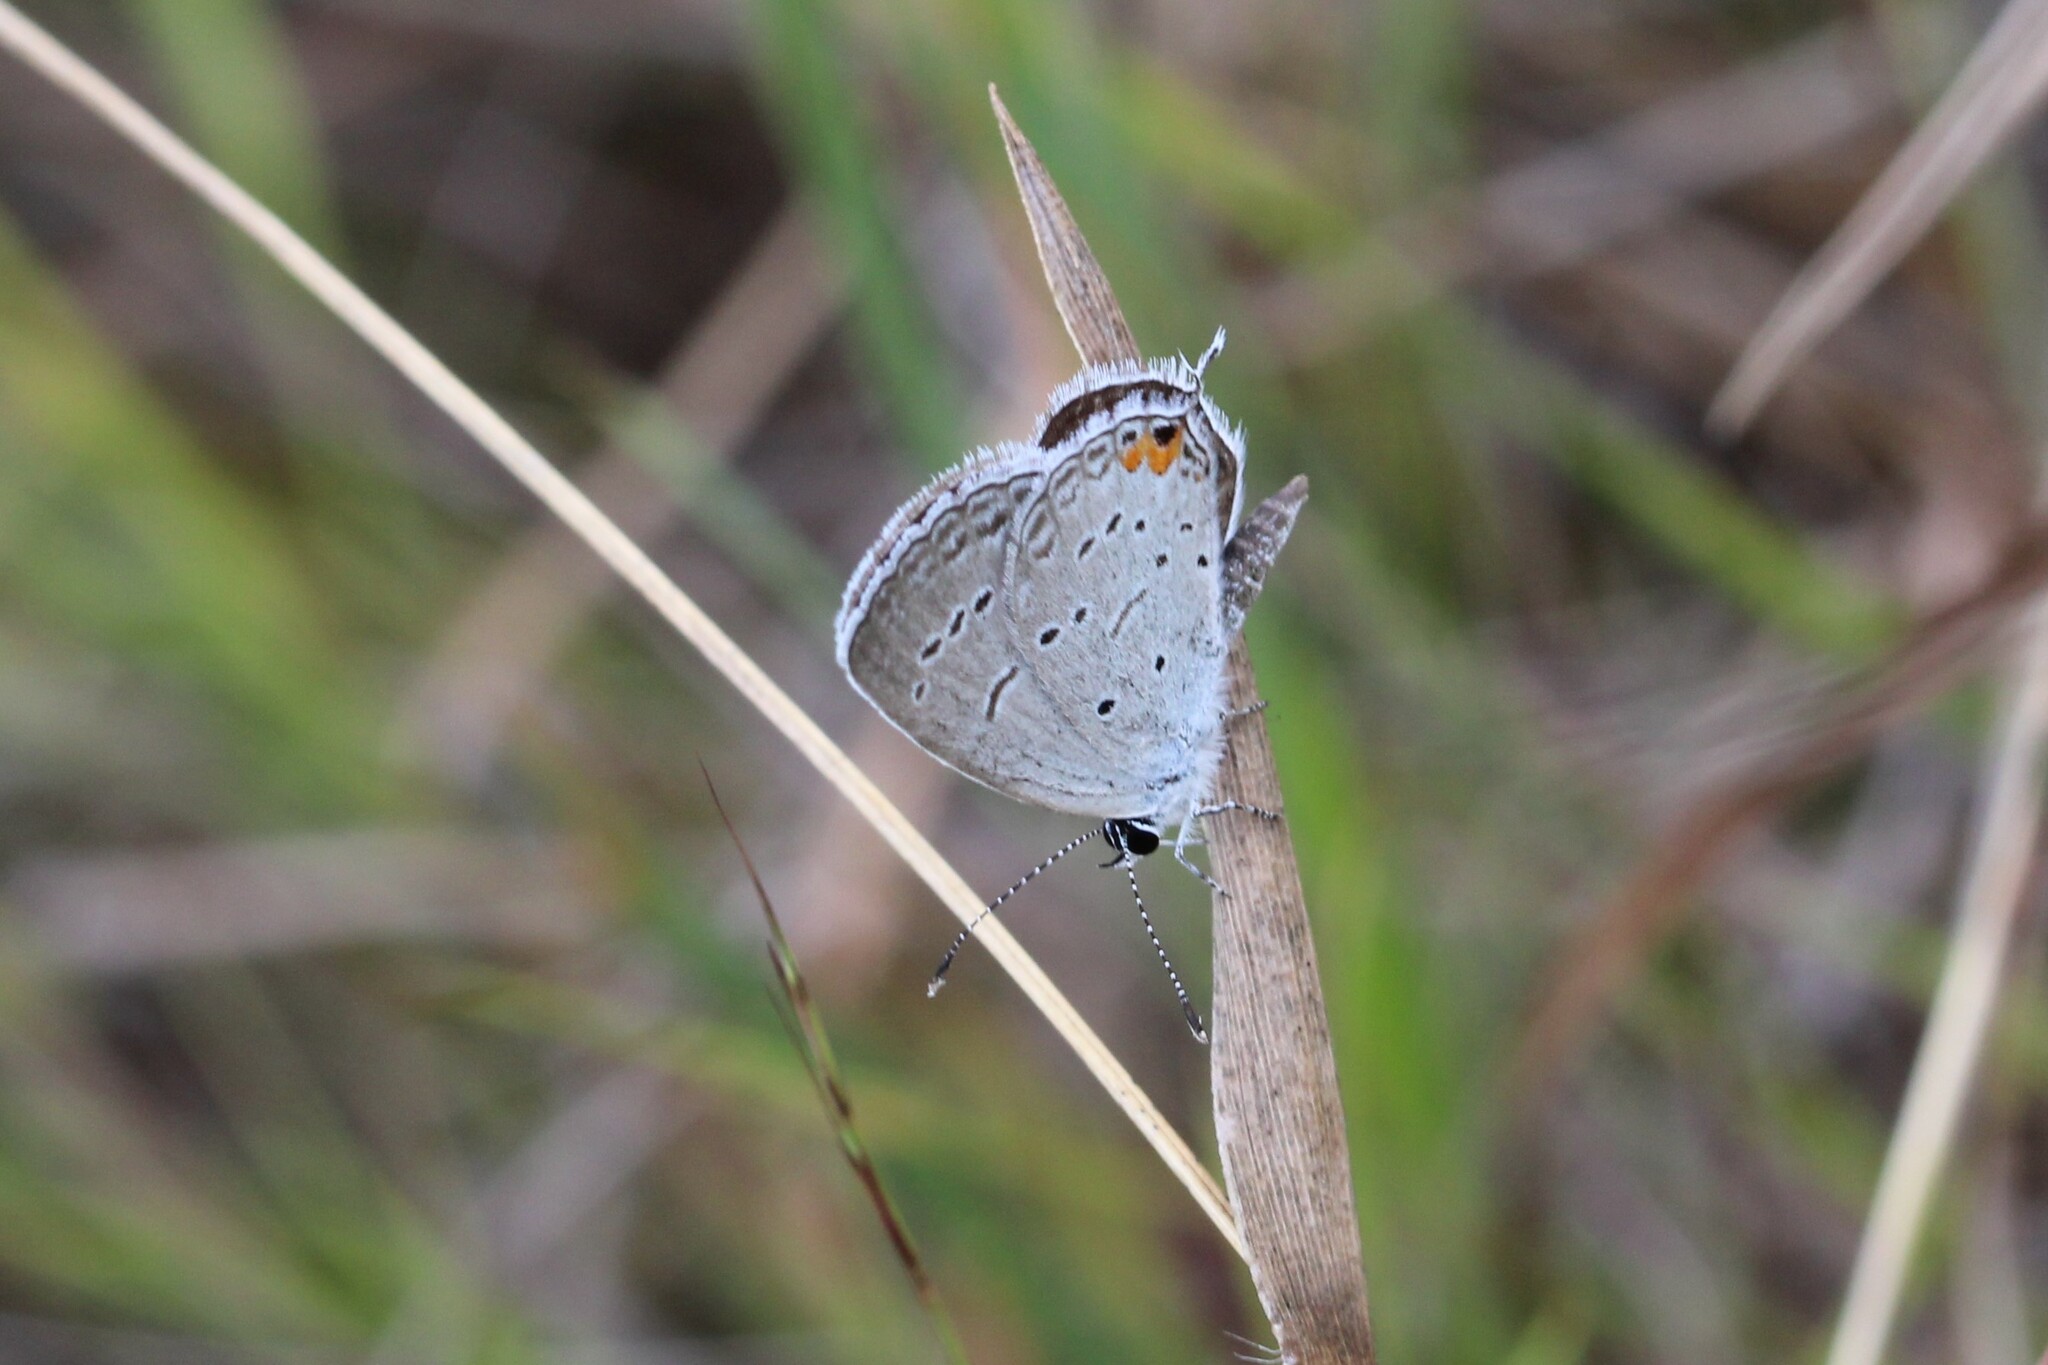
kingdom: Animalia
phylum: Arthropoda
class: Insecta
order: Lepidoptera
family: Lycaenidae
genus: Elkalyce
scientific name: Elkalyce comyntas
